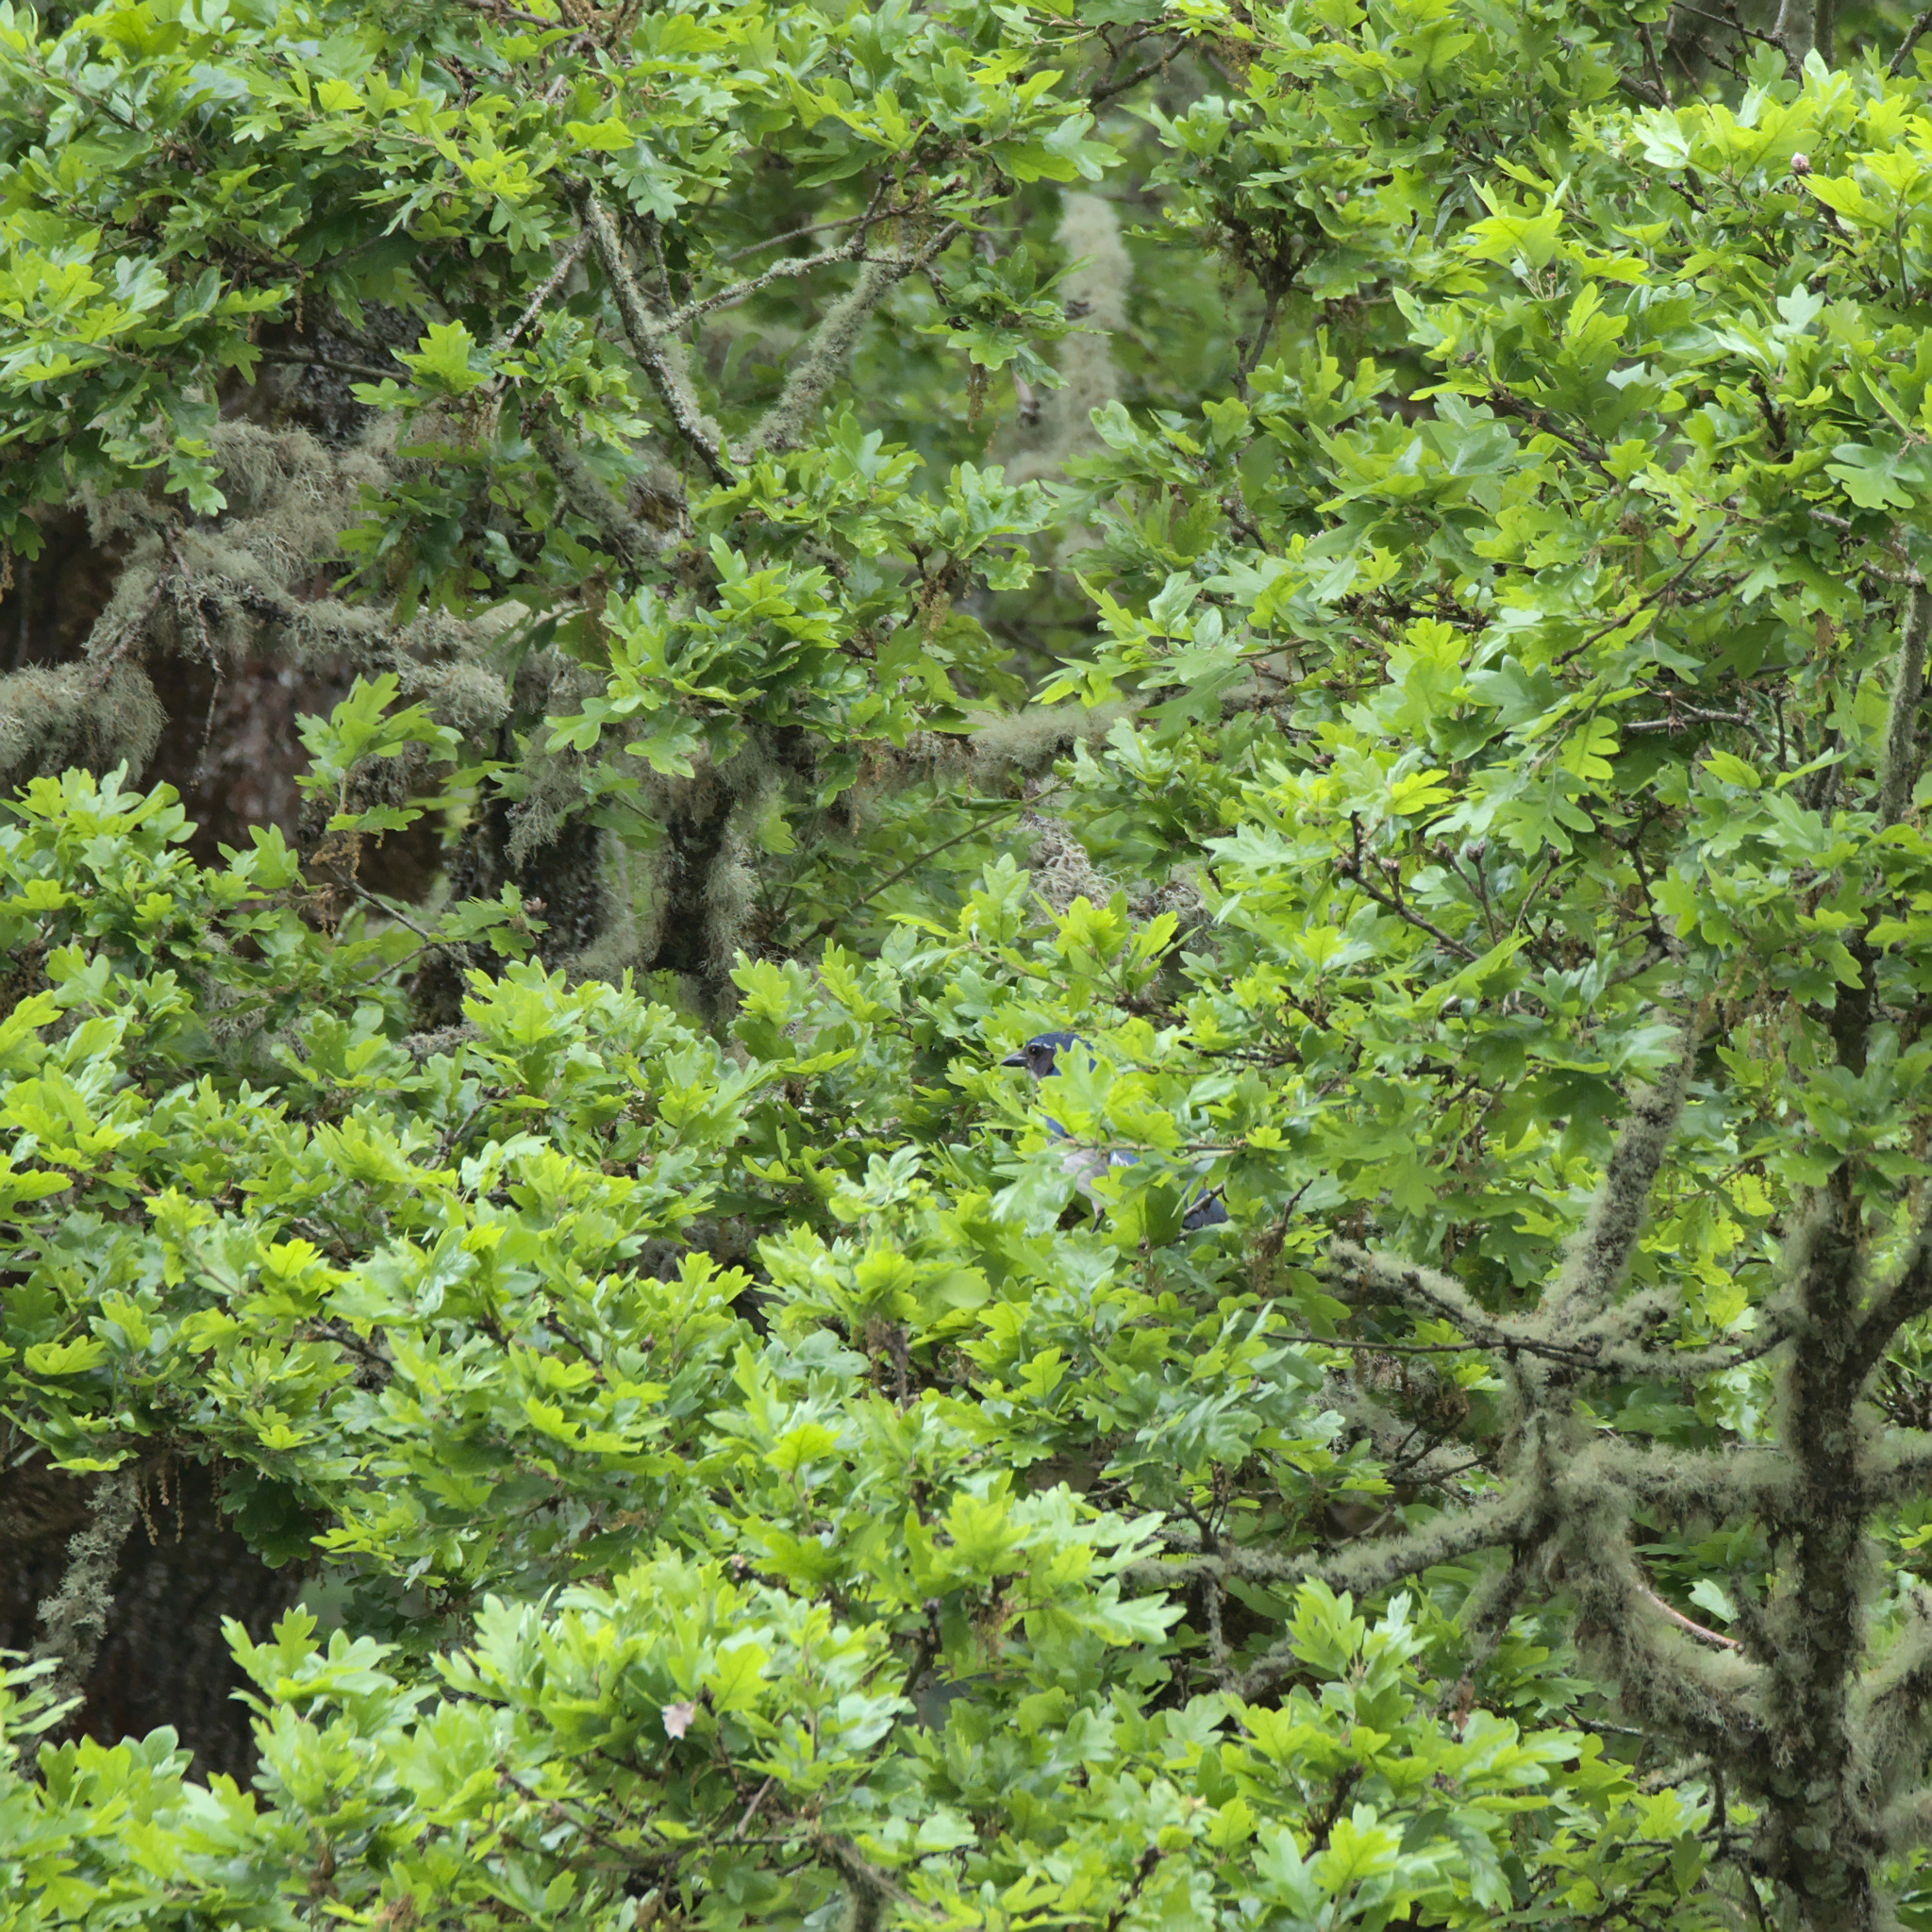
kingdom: Animalia
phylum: Chordata
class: Aves
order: Passeriformes
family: Corvidae
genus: Aphelocoma
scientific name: Aphelocoma californica
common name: California scrub-jay
